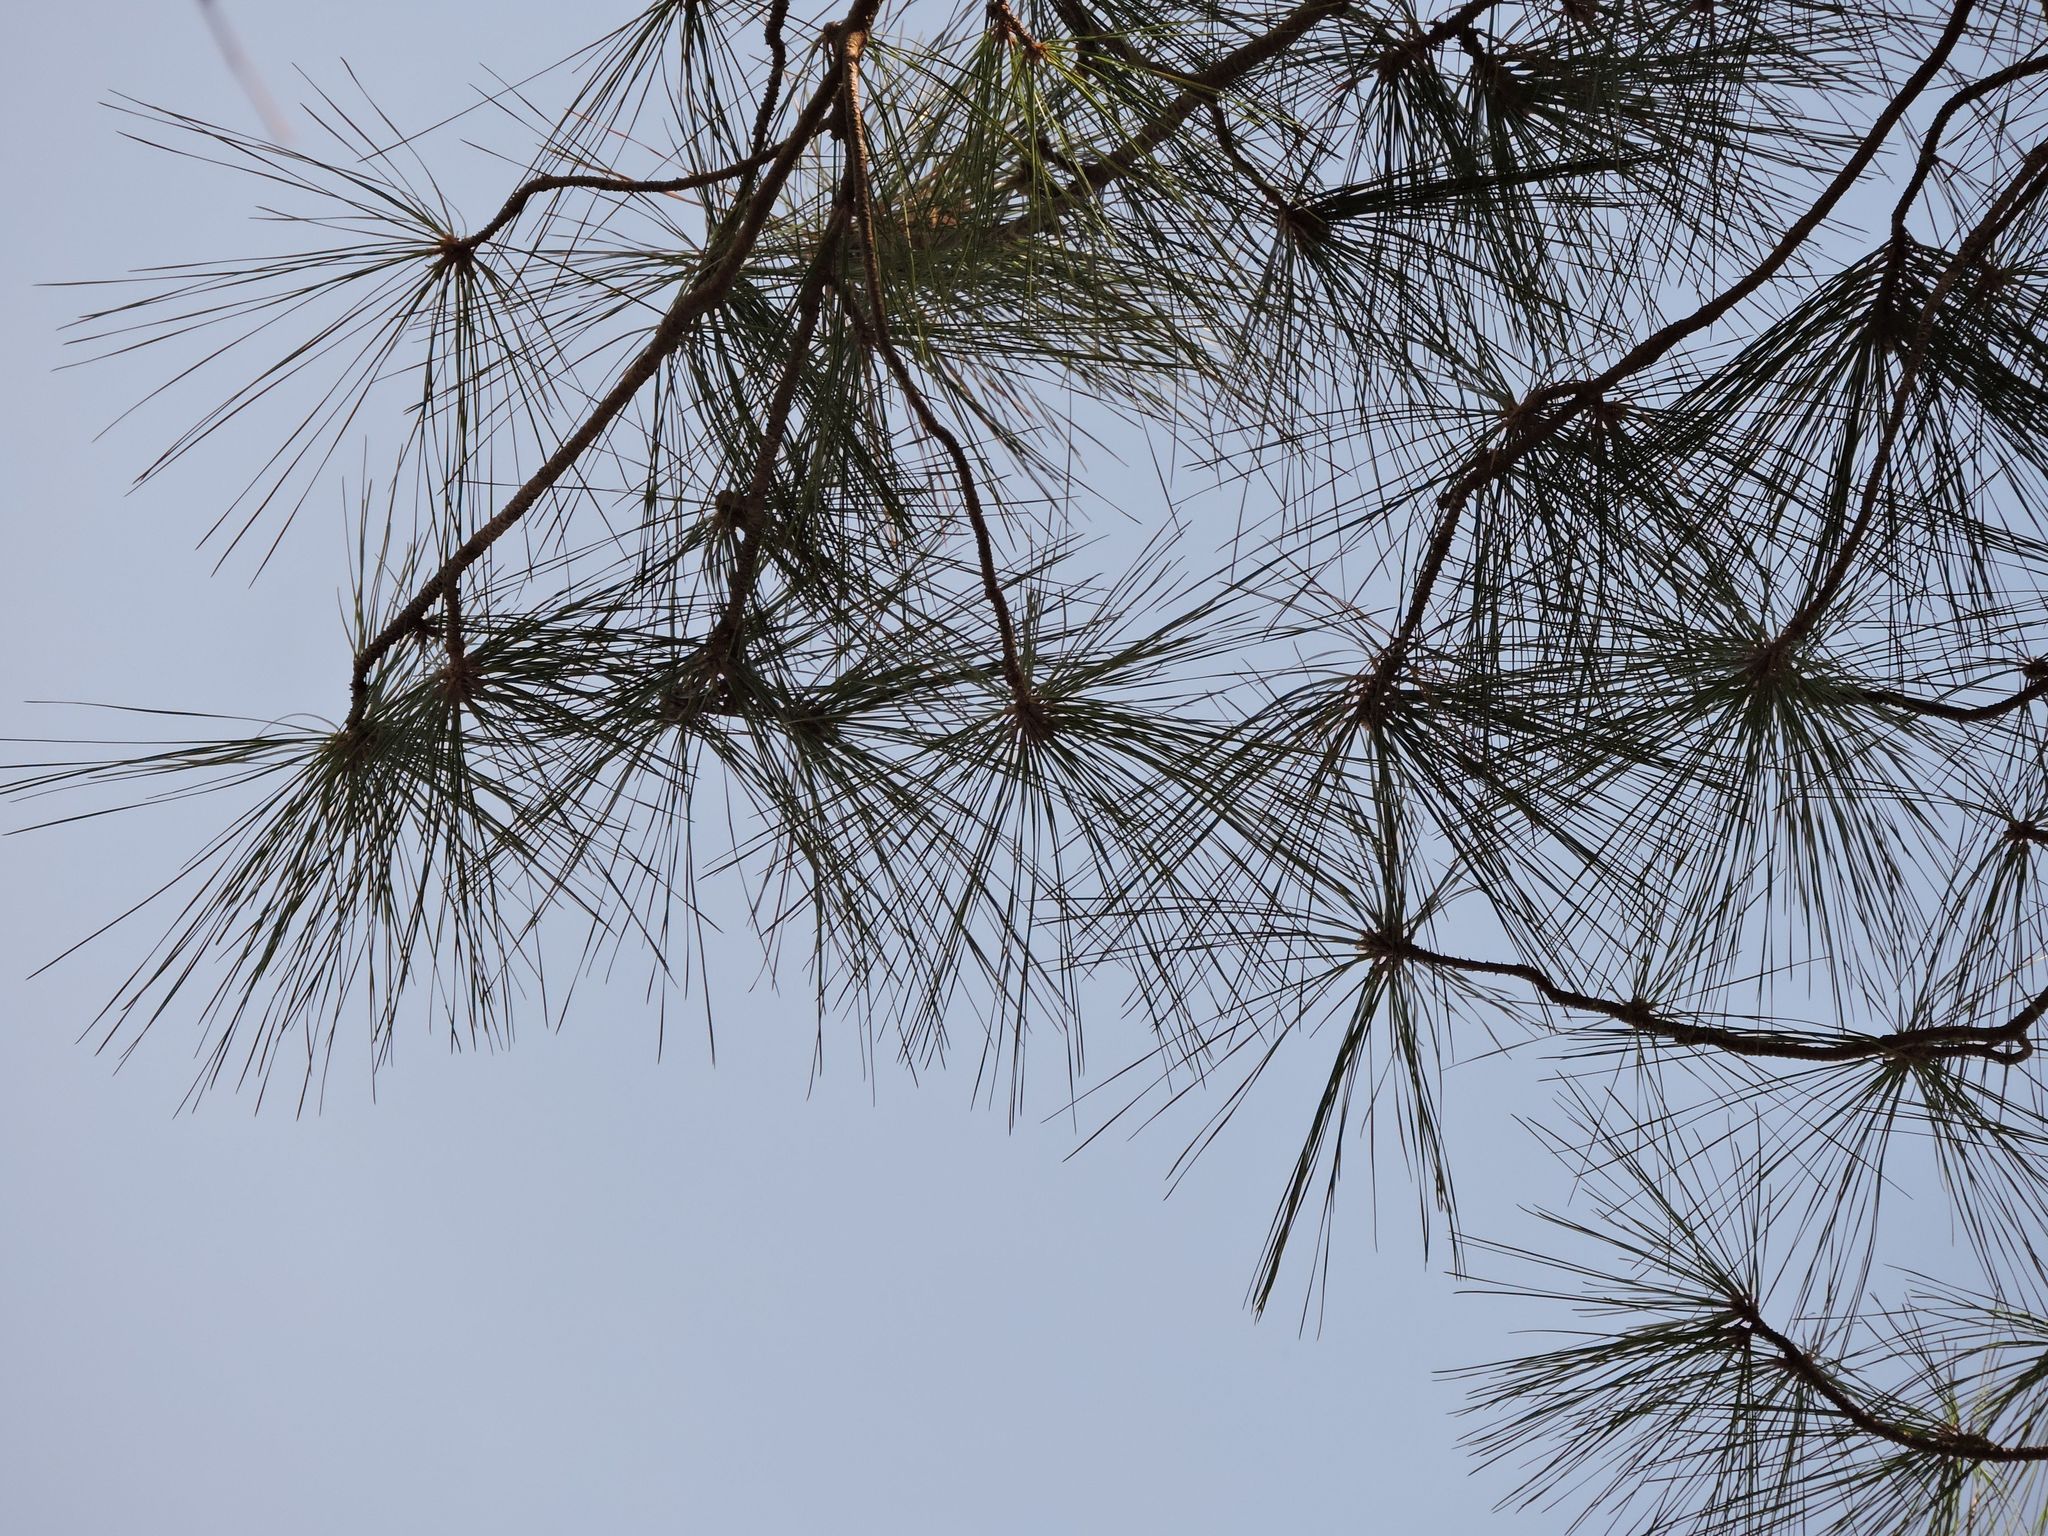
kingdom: Plantae
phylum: Tracheophyta
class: Pinopsida
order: Pinales
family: Pinaceae
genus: Pinus
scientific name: Pinus taeda
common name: Loblolly pine
